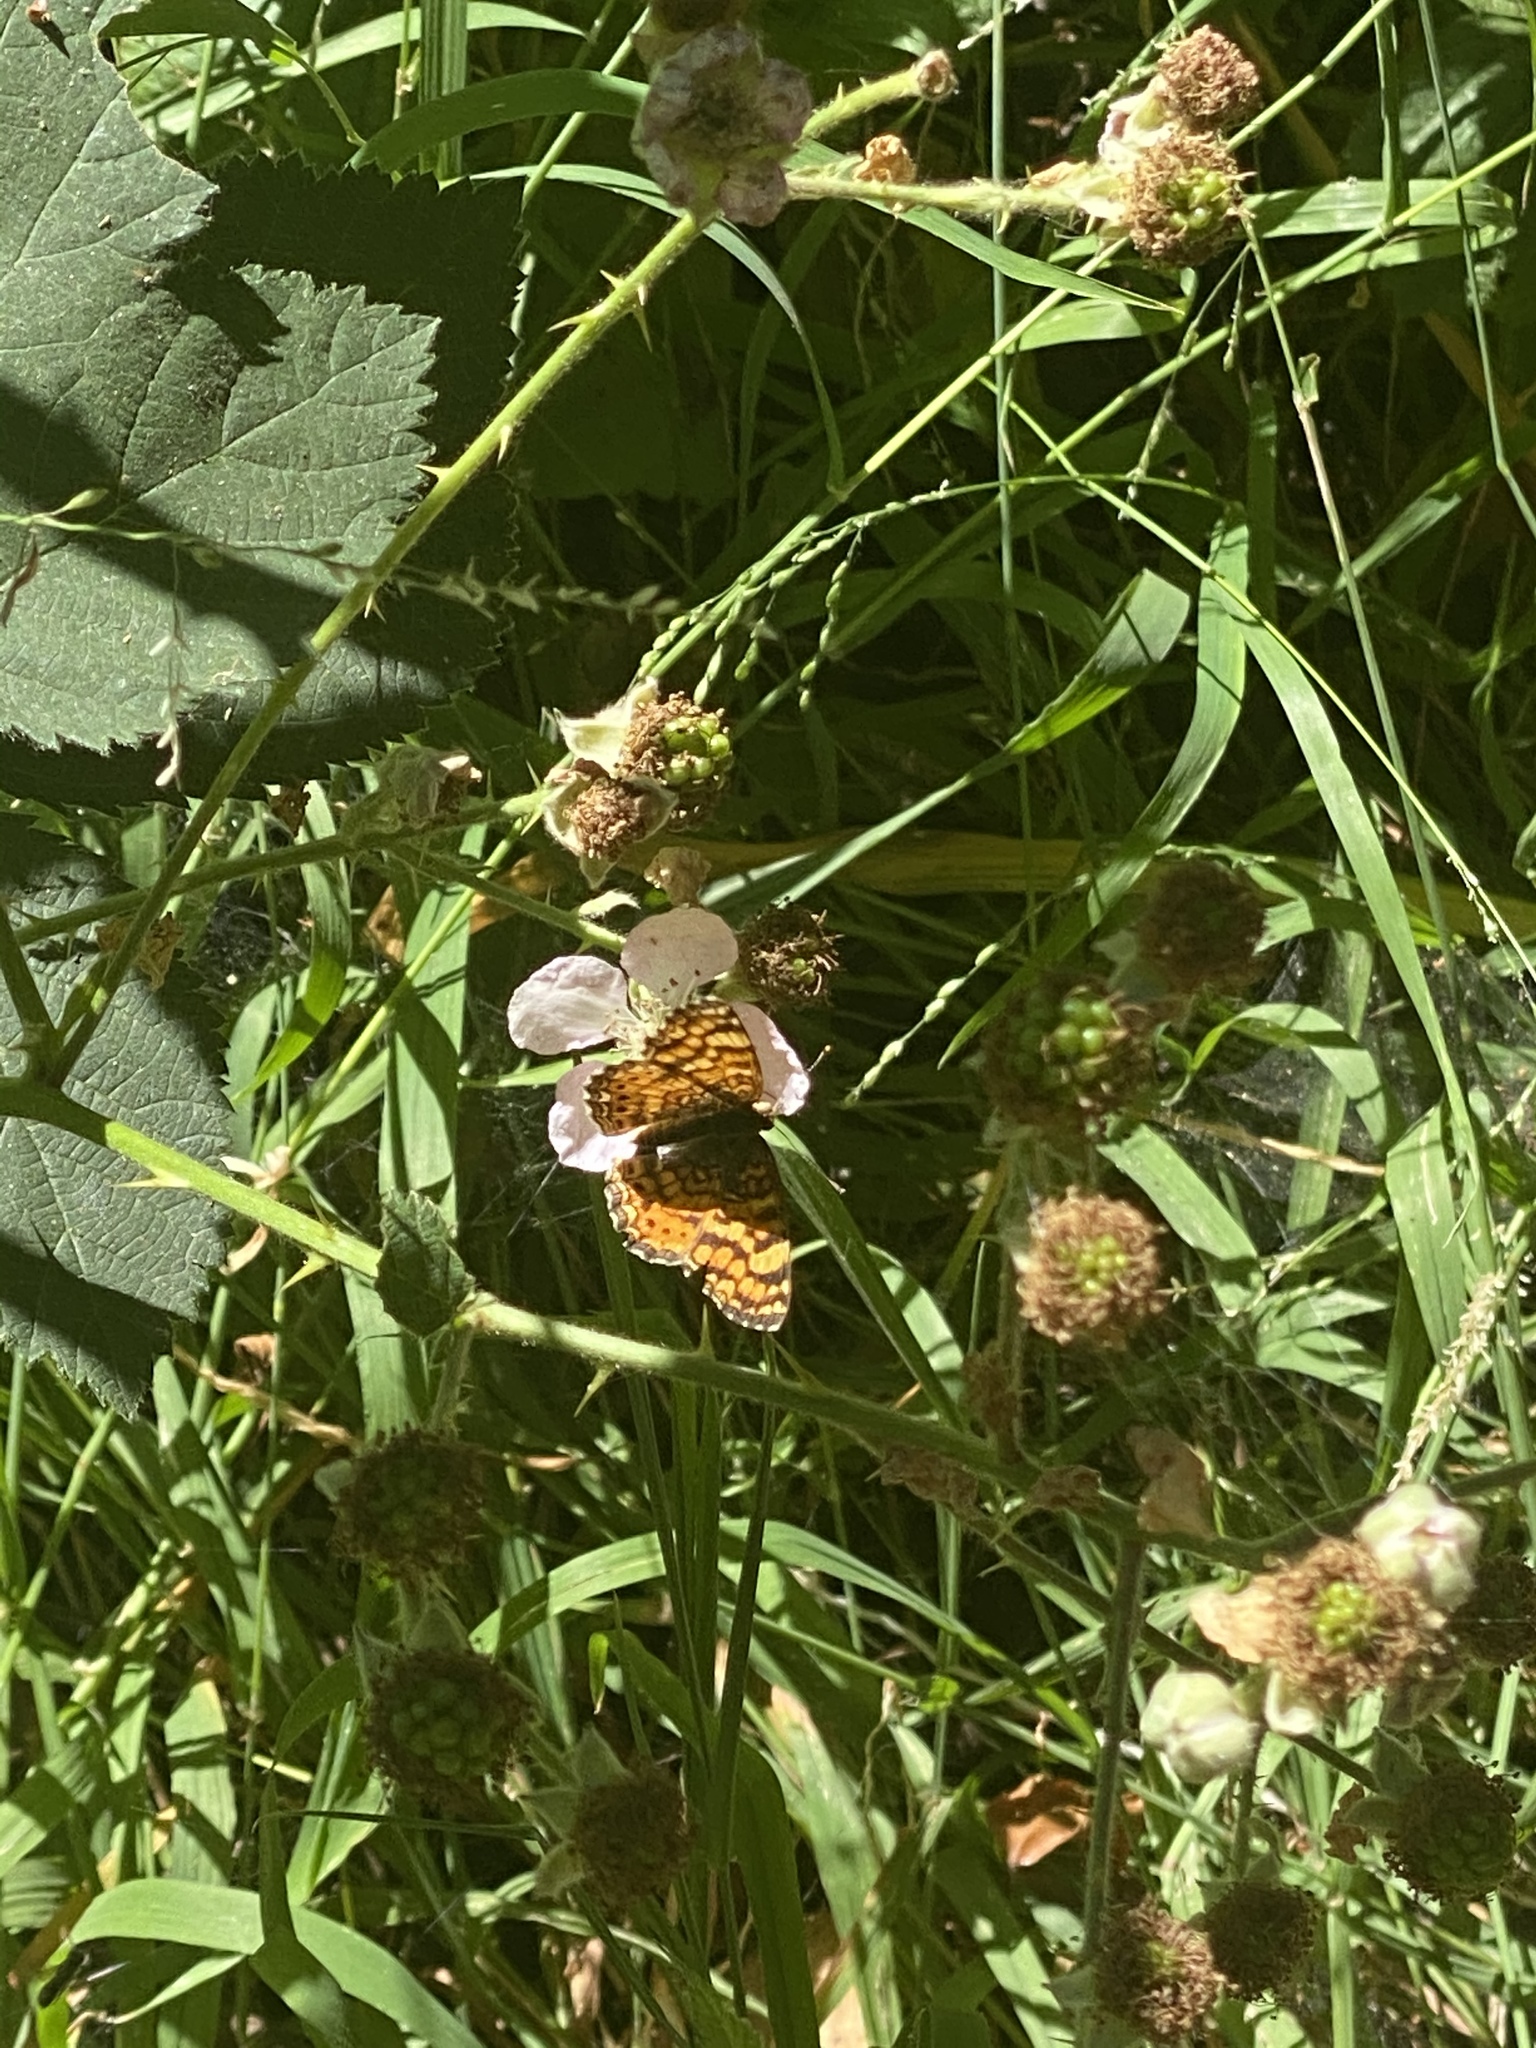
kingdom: Animalia
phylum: Arthropoda
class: Insecta
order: Lepidoptera
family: Nymphalidae
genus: Eresia
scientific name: Eresia aveyrona
